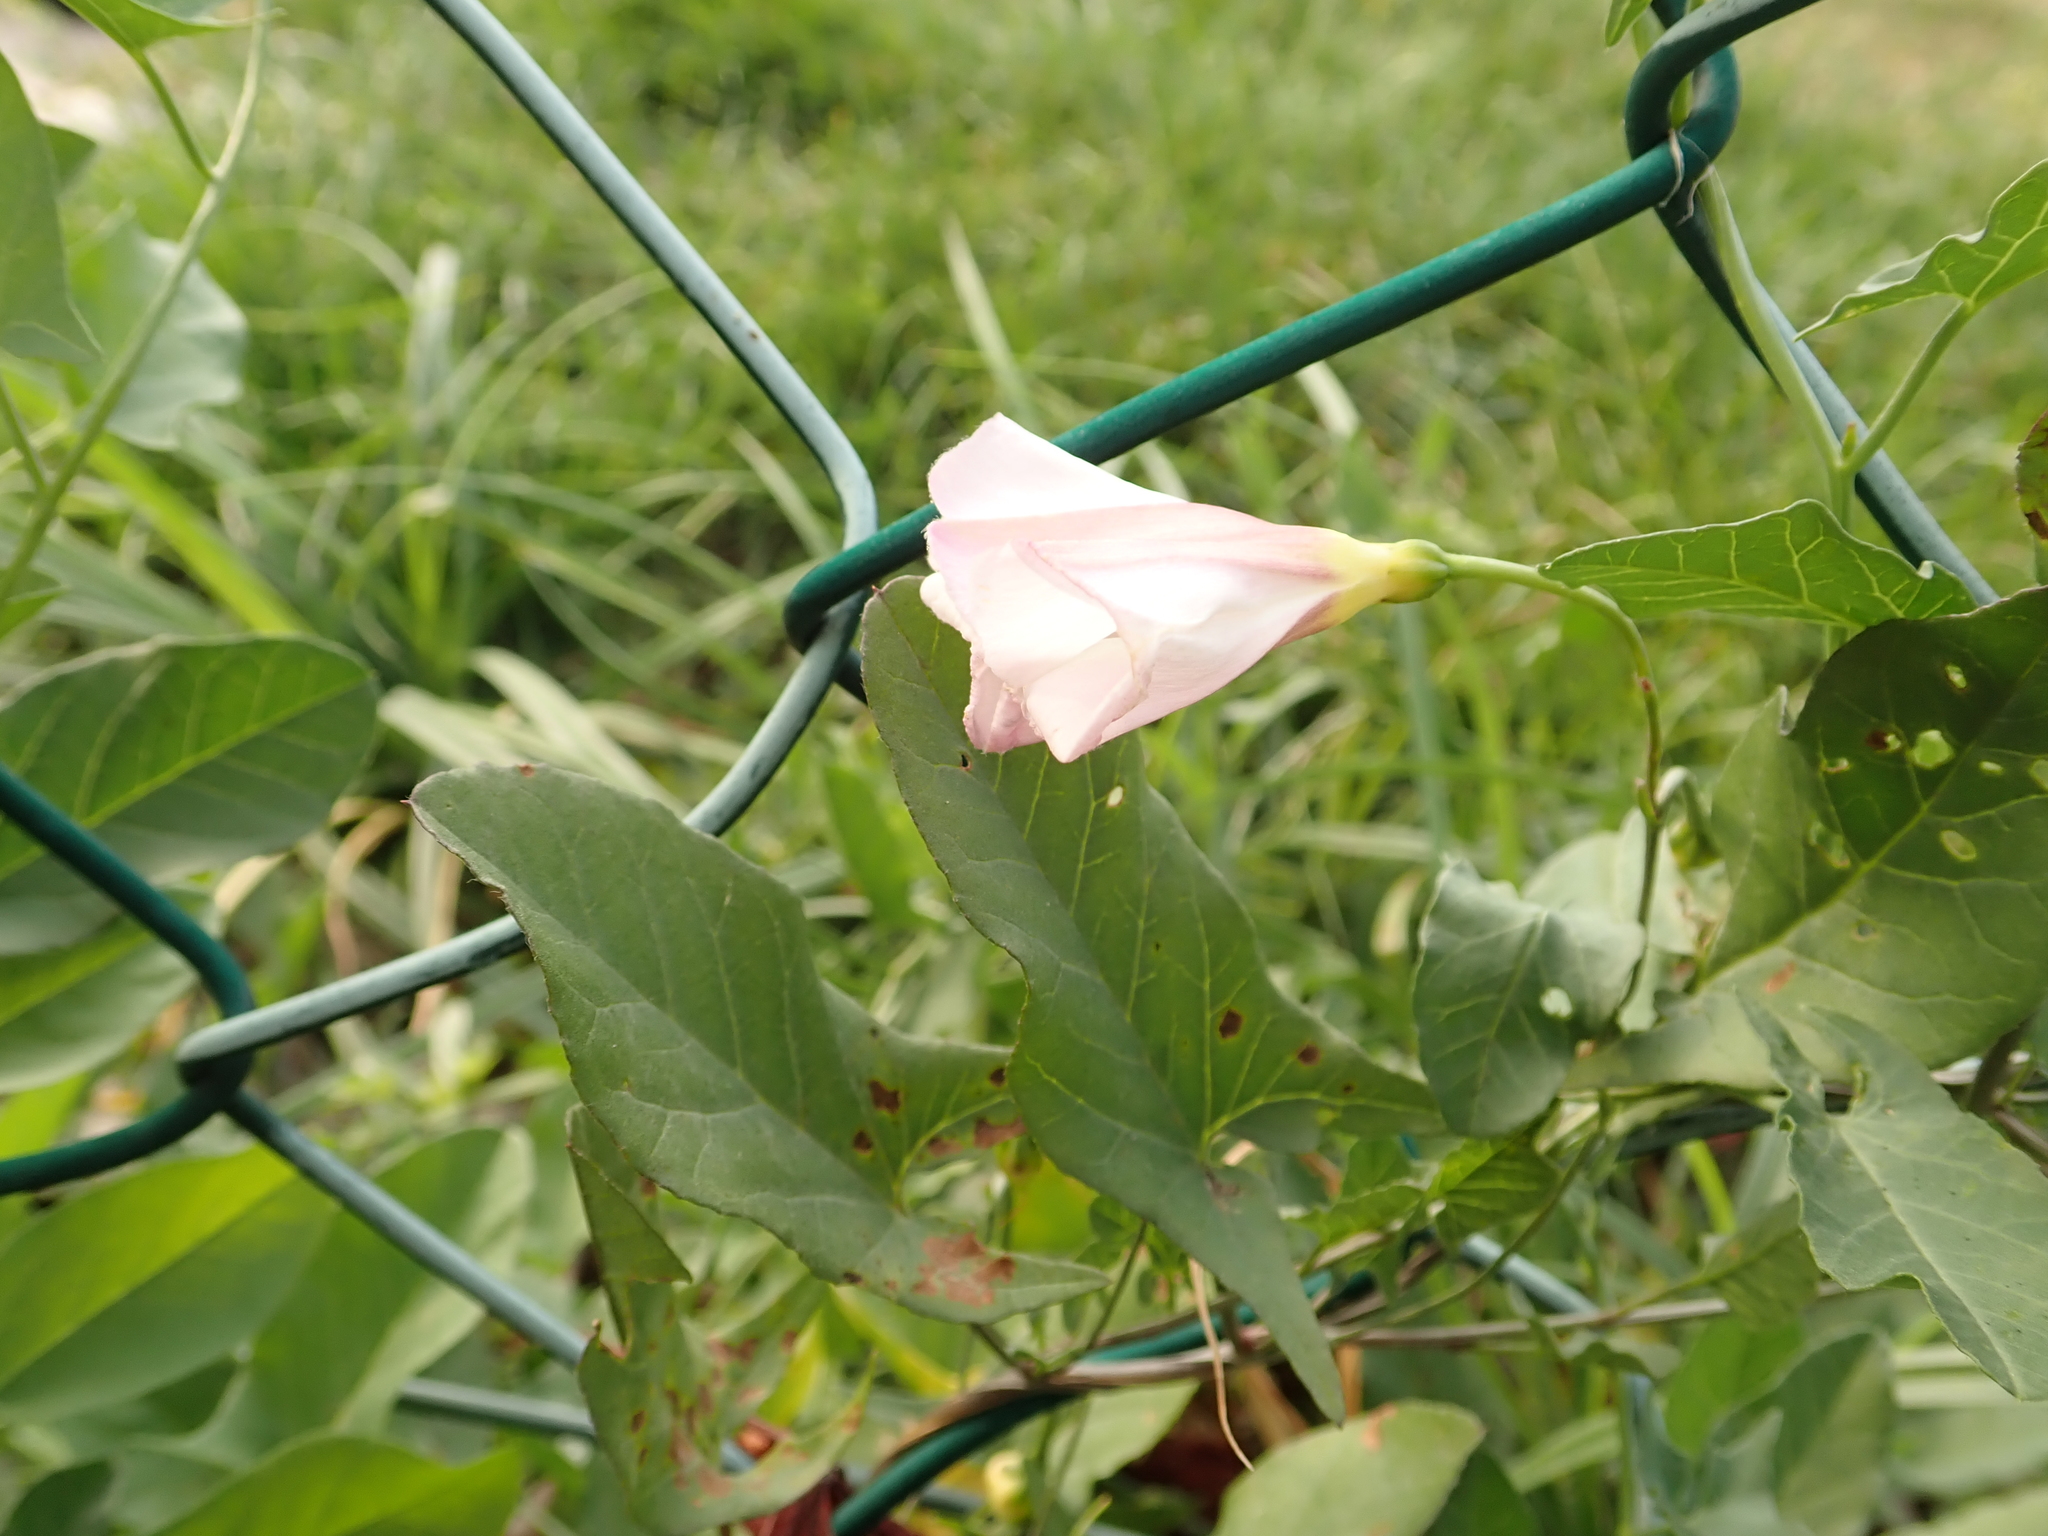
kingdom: Plantae
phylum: Tracheophyta
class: Magnoliopsida
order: Solanales
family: Convolvulaceae
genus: Convolvulus
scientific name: Convolvulus arvensis
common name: Field bindweed
